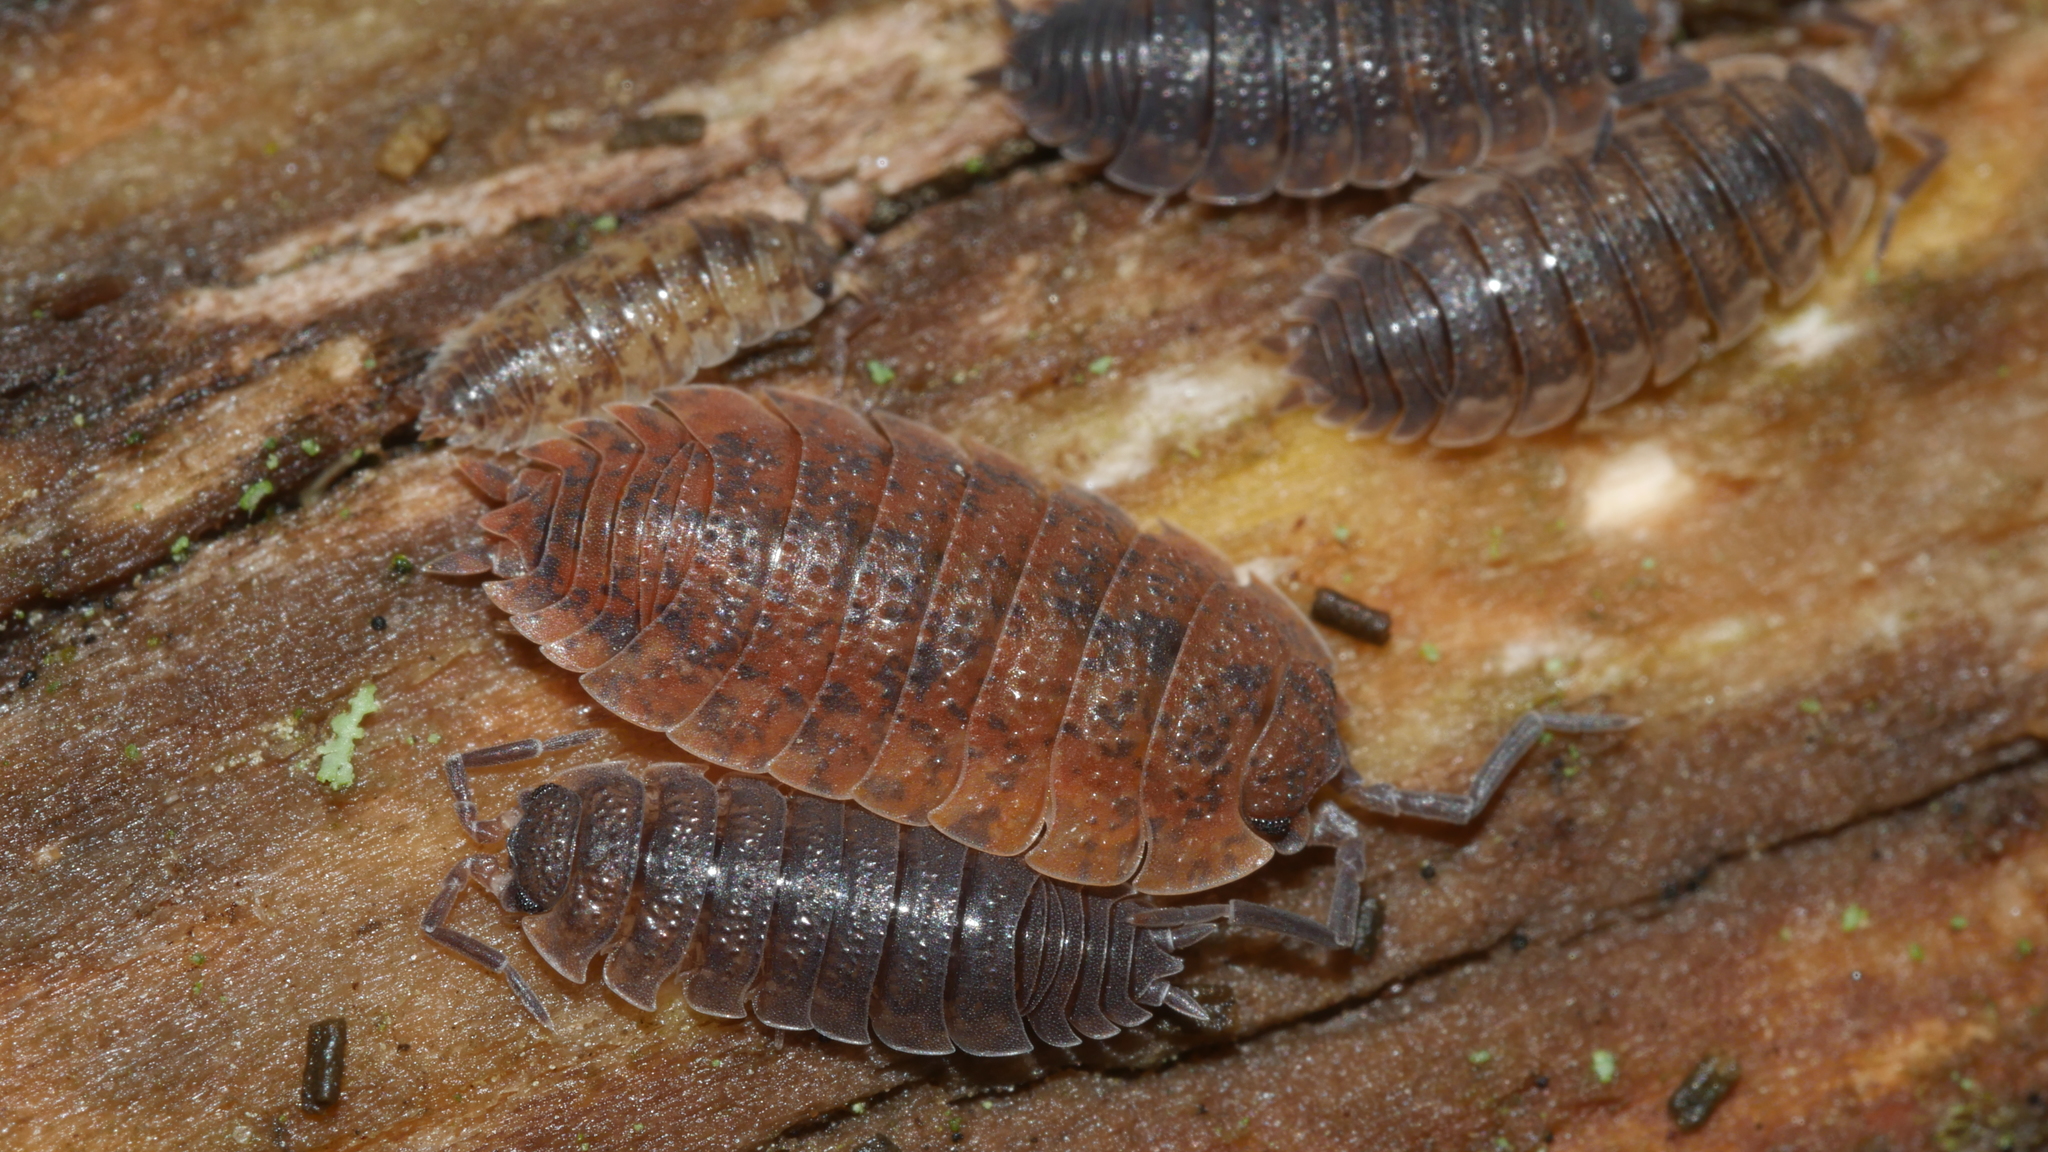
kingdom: Animalia
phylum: Arthropoda
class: Malacostraca
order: Isopoda
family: Porcellionidae
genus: Porcellio
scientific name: Porcellio scaber
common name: Common rough woodlouse
